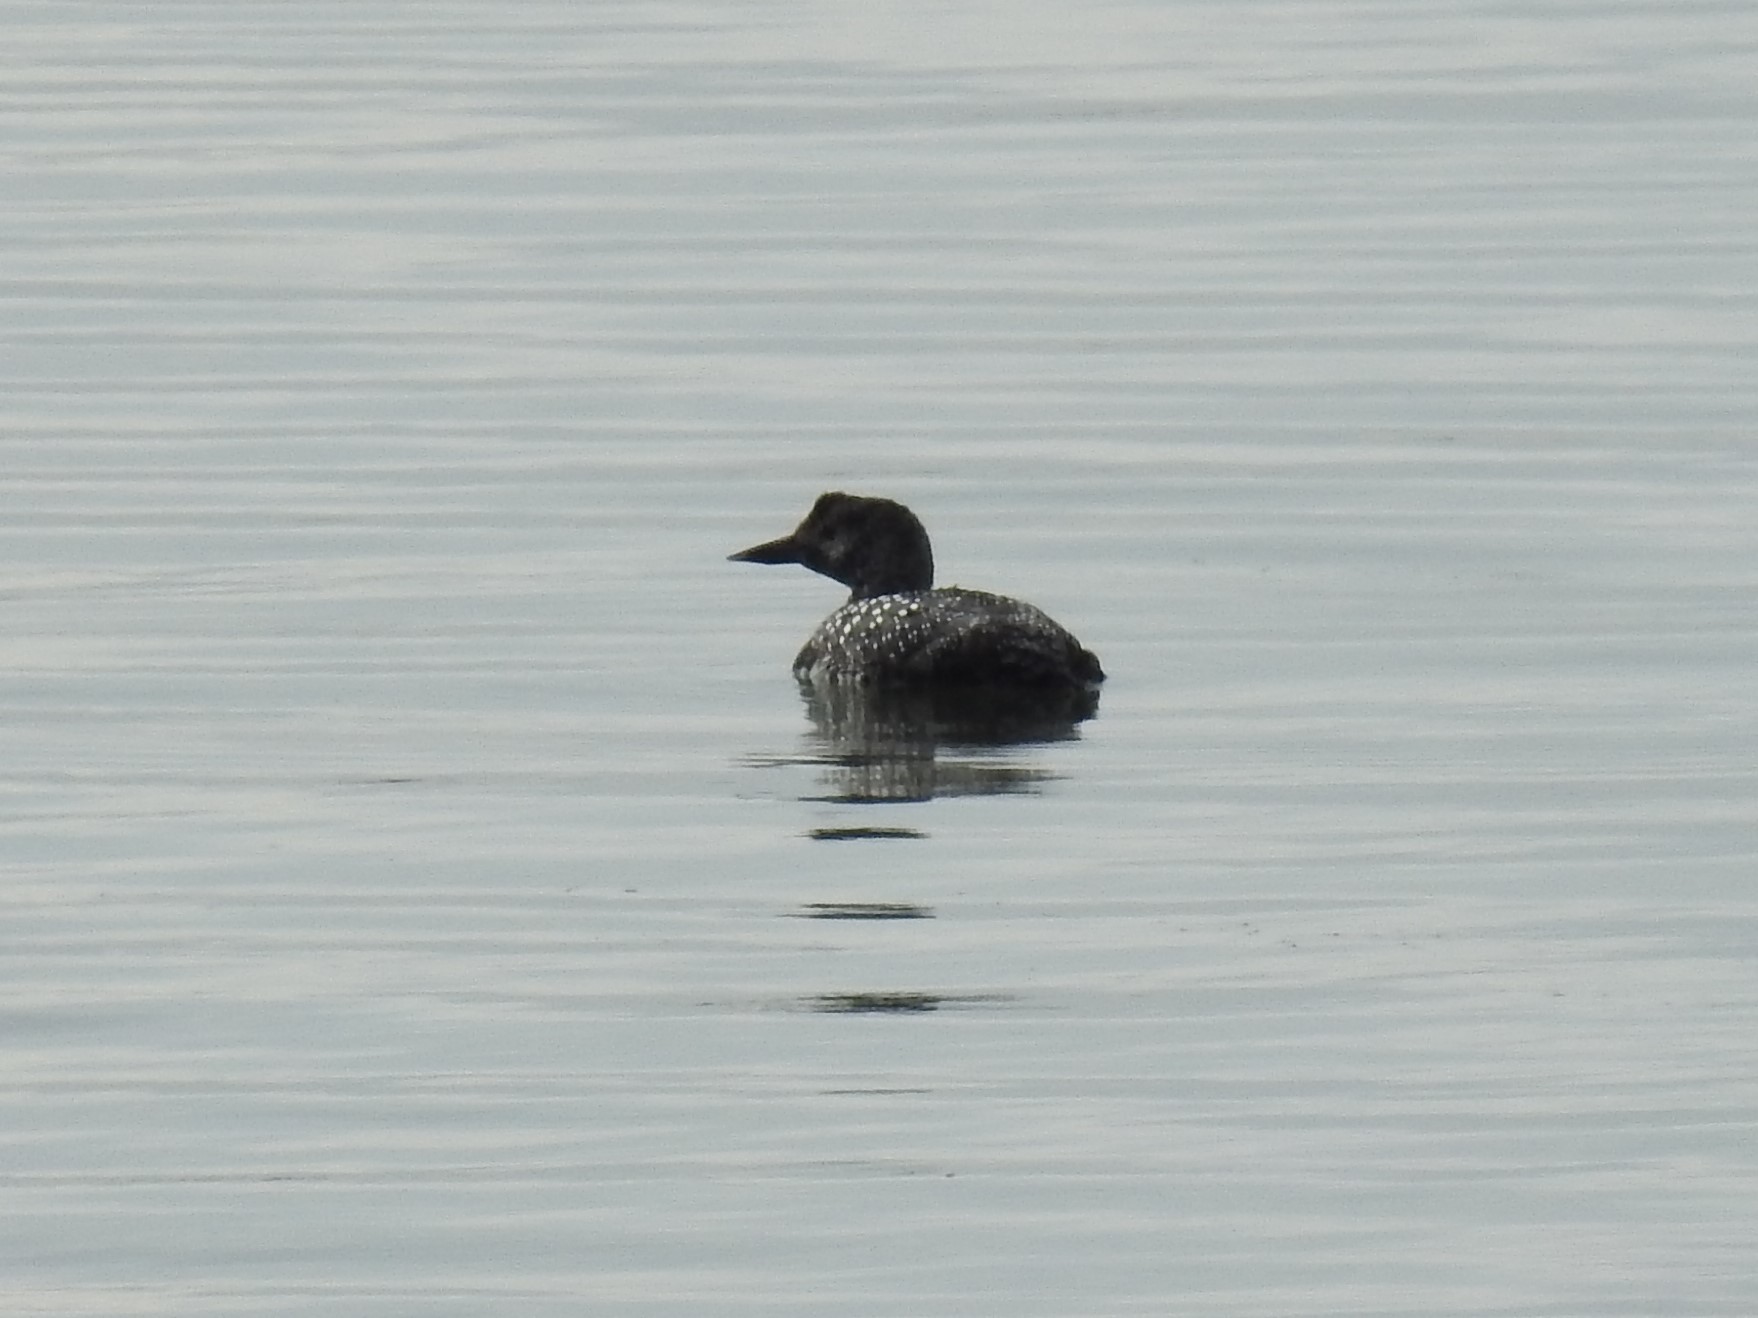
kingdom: Animalia
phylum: Chordata
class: Aves
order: Gaviiformes
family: Gaviidae
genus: Gavia
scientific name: Gavia immer
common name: Common loon
